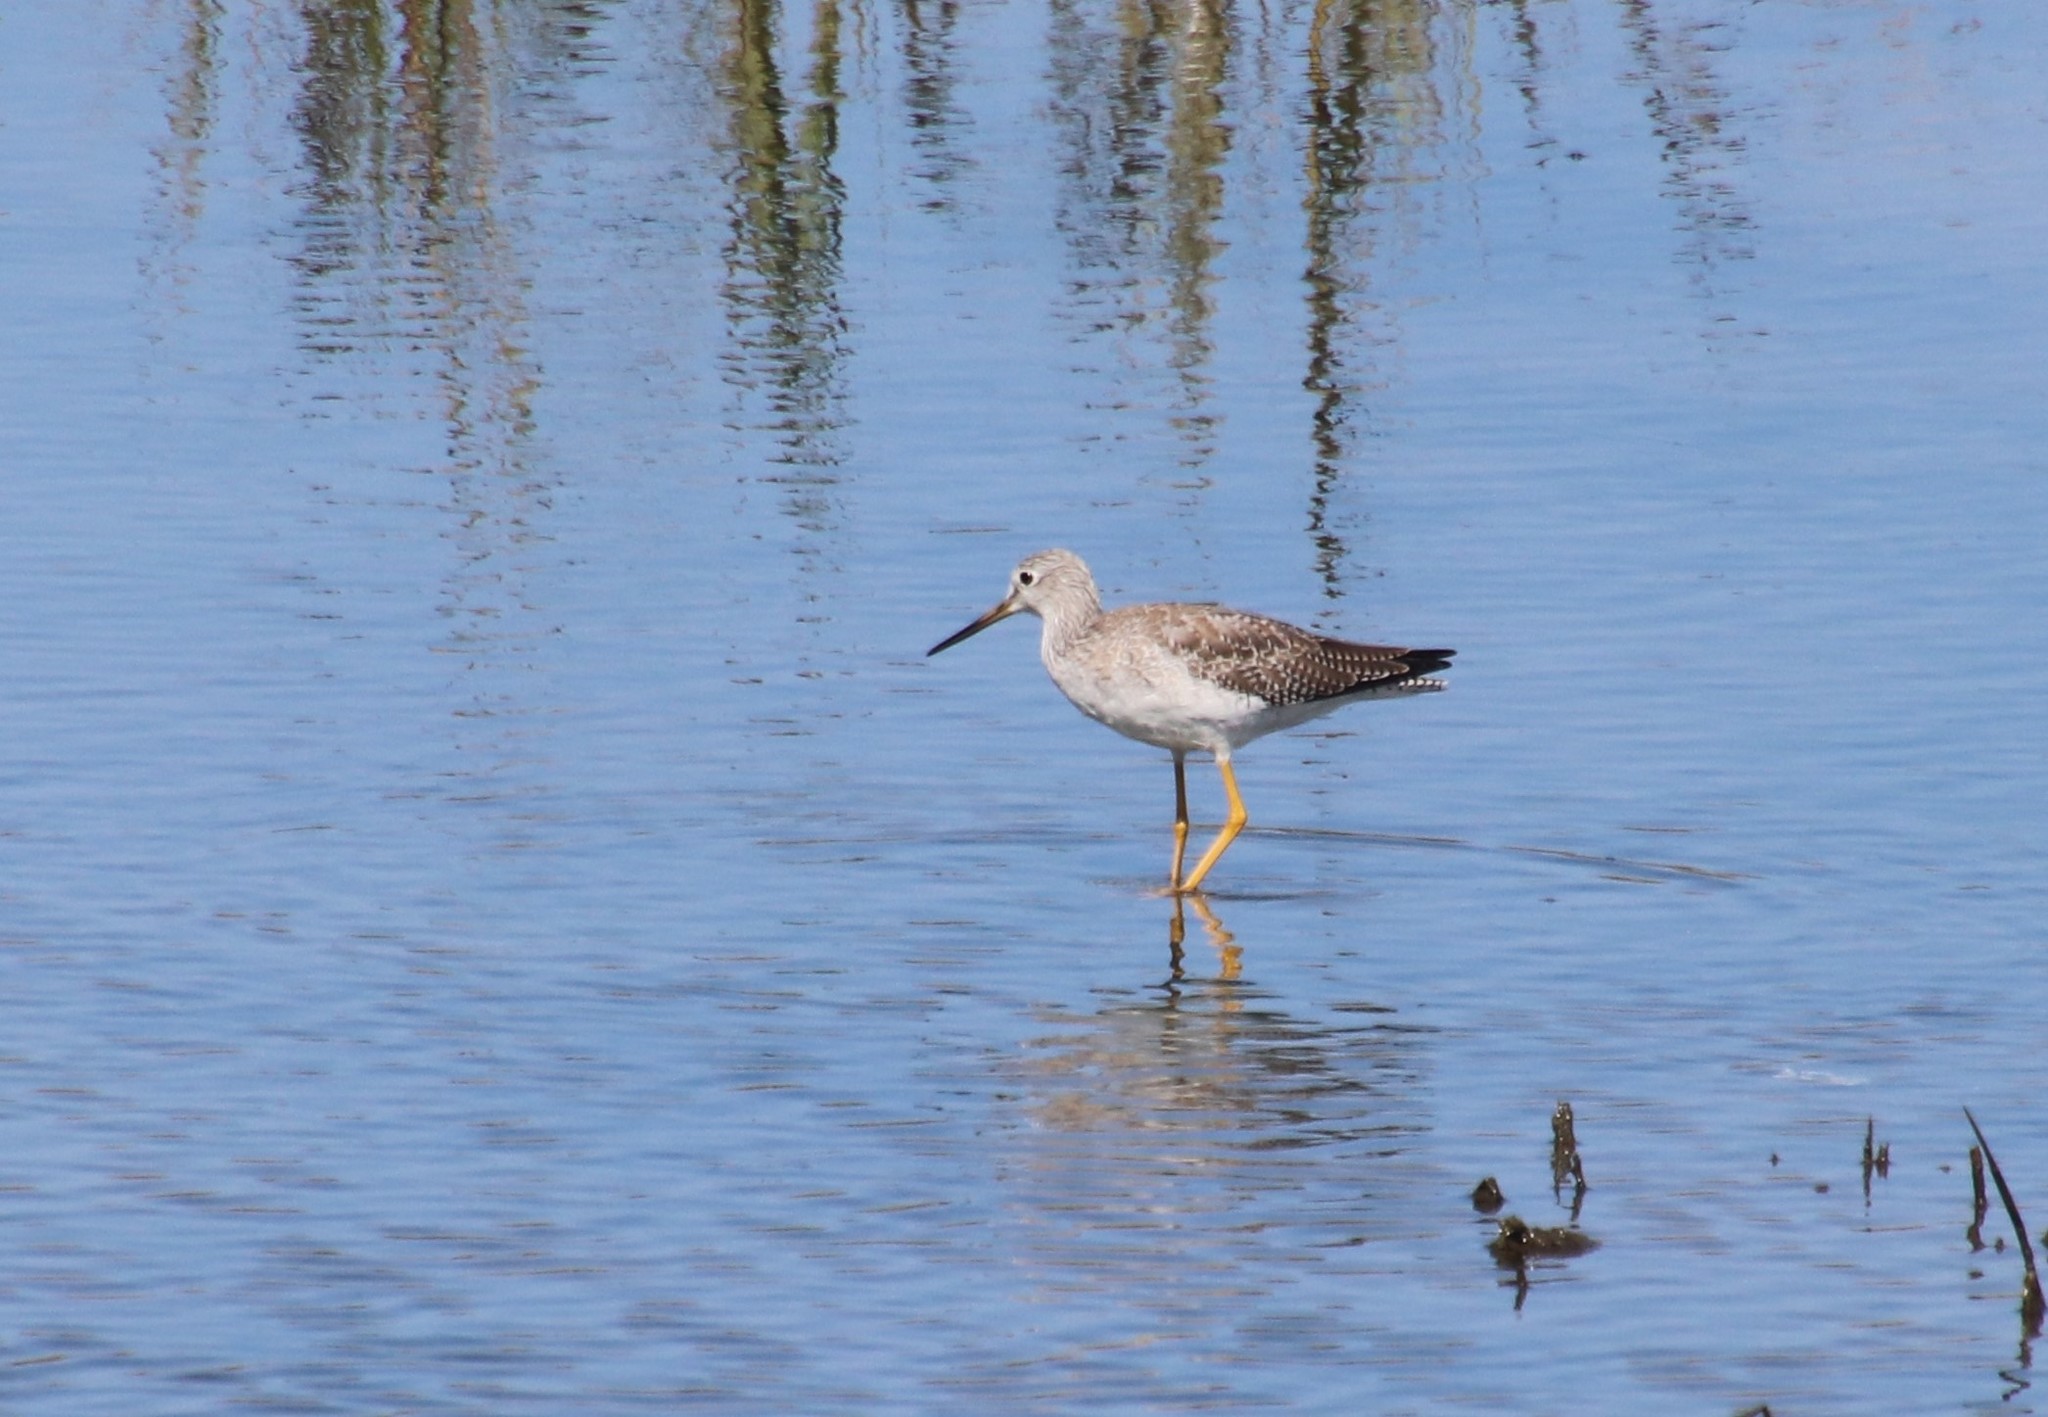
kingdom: Animalia
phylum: Chordata
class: Aves
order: Charadriiformes
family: Scolopacidae
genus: Tringa
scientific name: Tringa melanoleuca
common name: Greater yellowlegs
